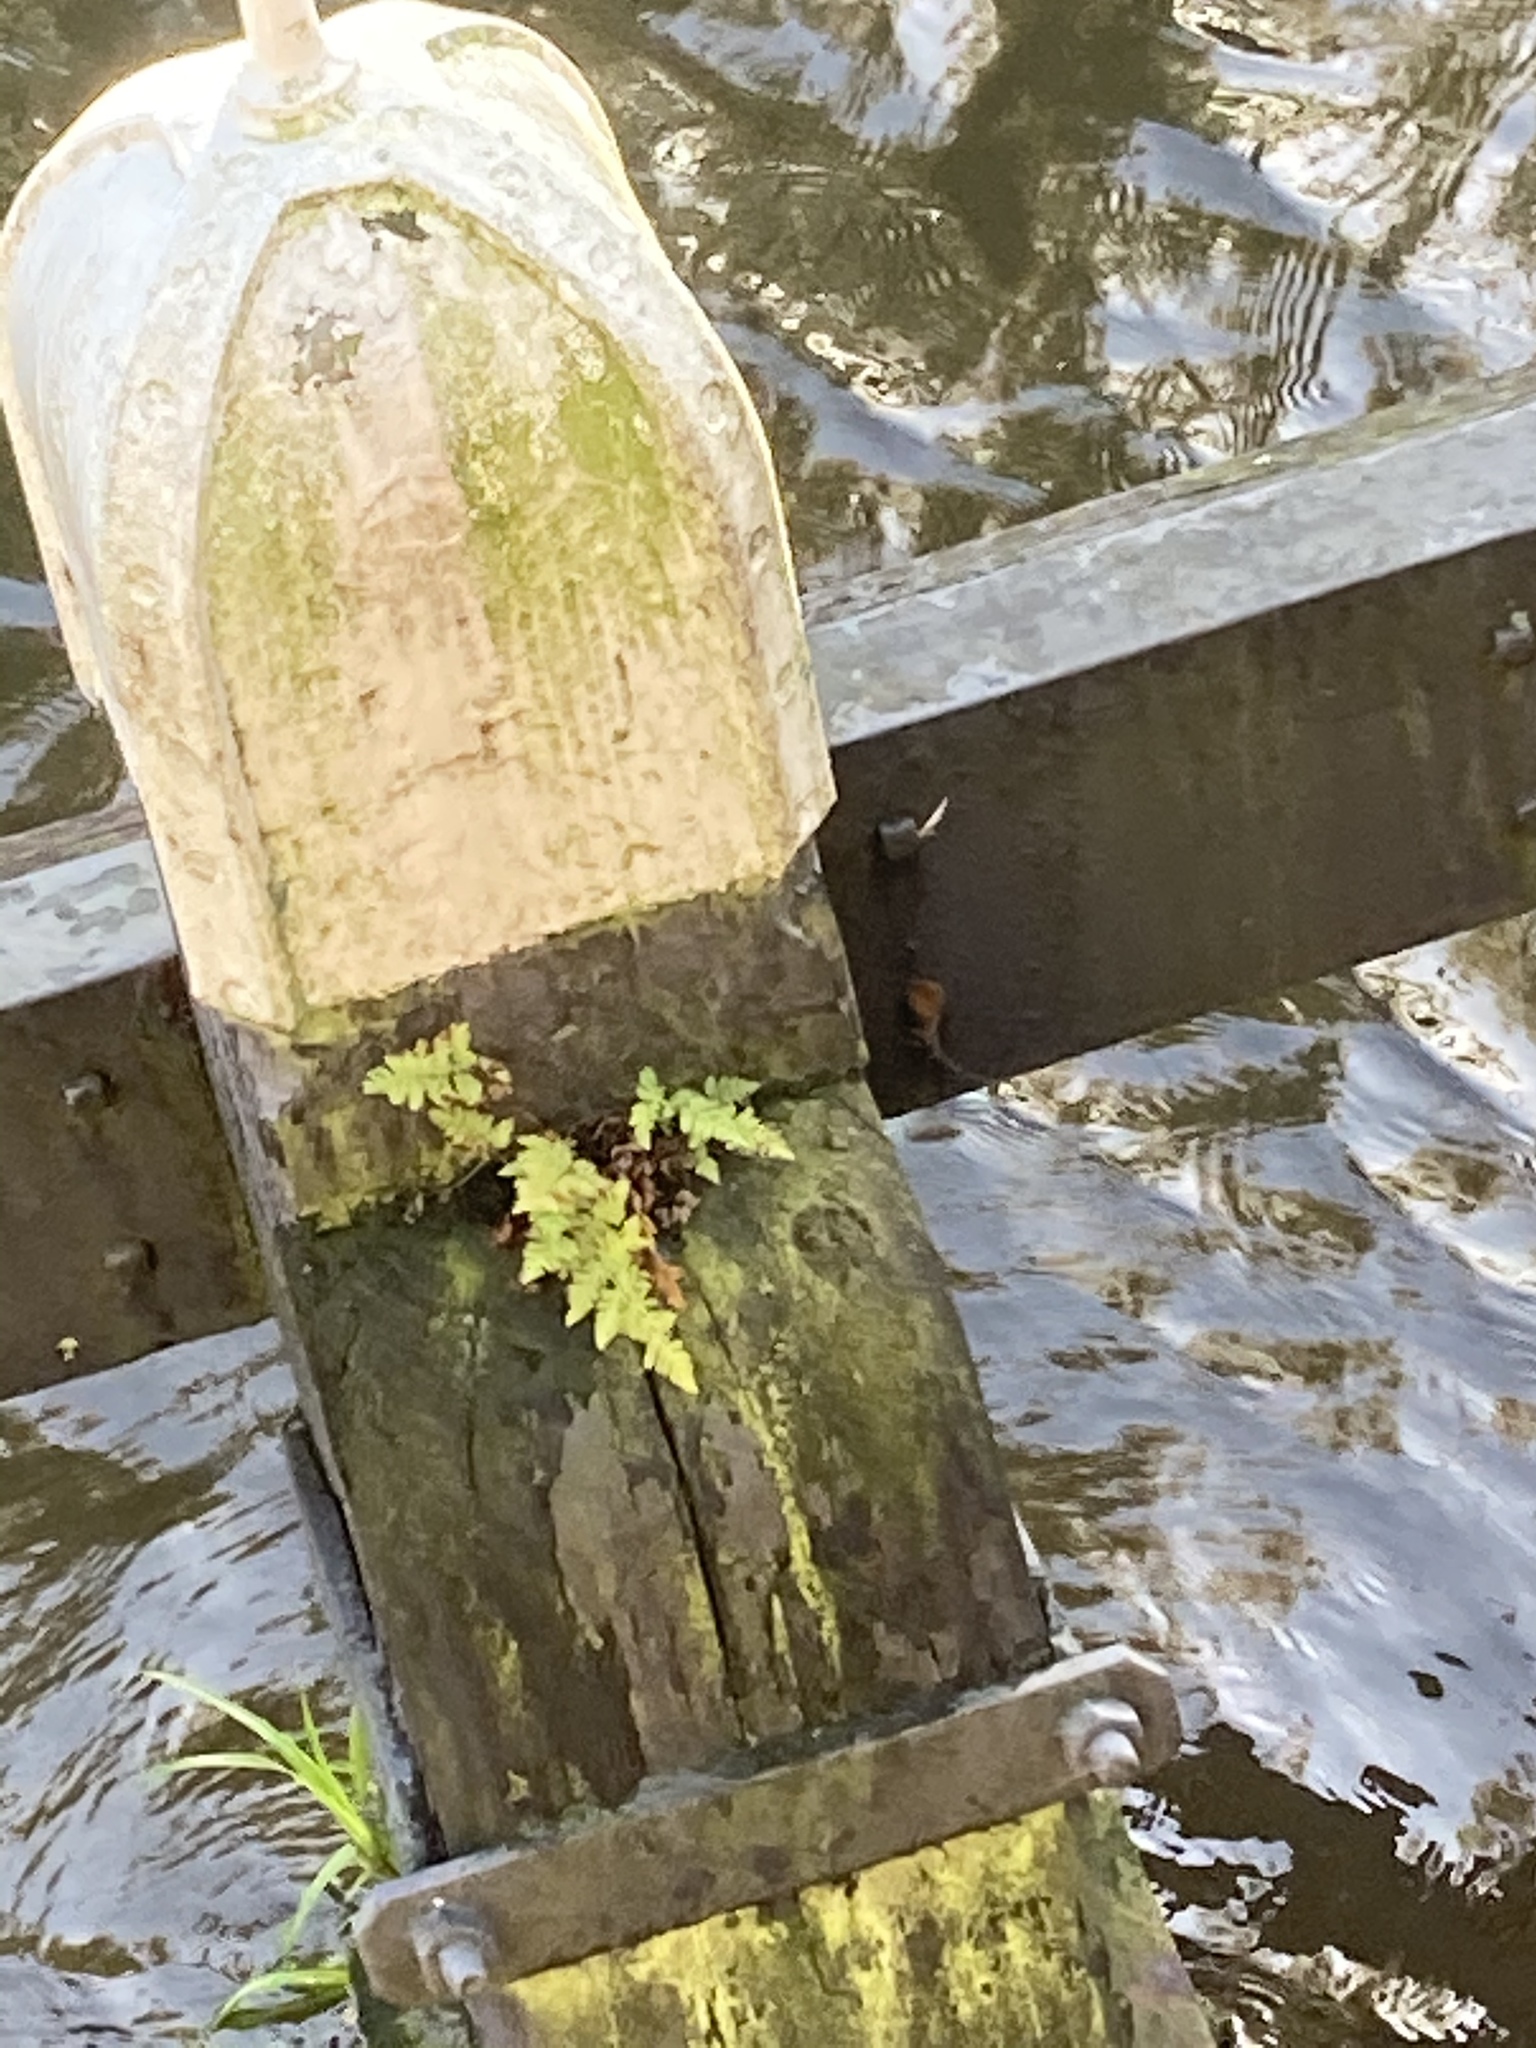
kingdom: Plantae
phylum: Tracheophyta
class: Polypodiopsida
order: Polypodiales
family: Aspleniaceae
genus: Asplenium
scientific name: Asplenium adiantum-nigrum
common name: Black spleenwort
